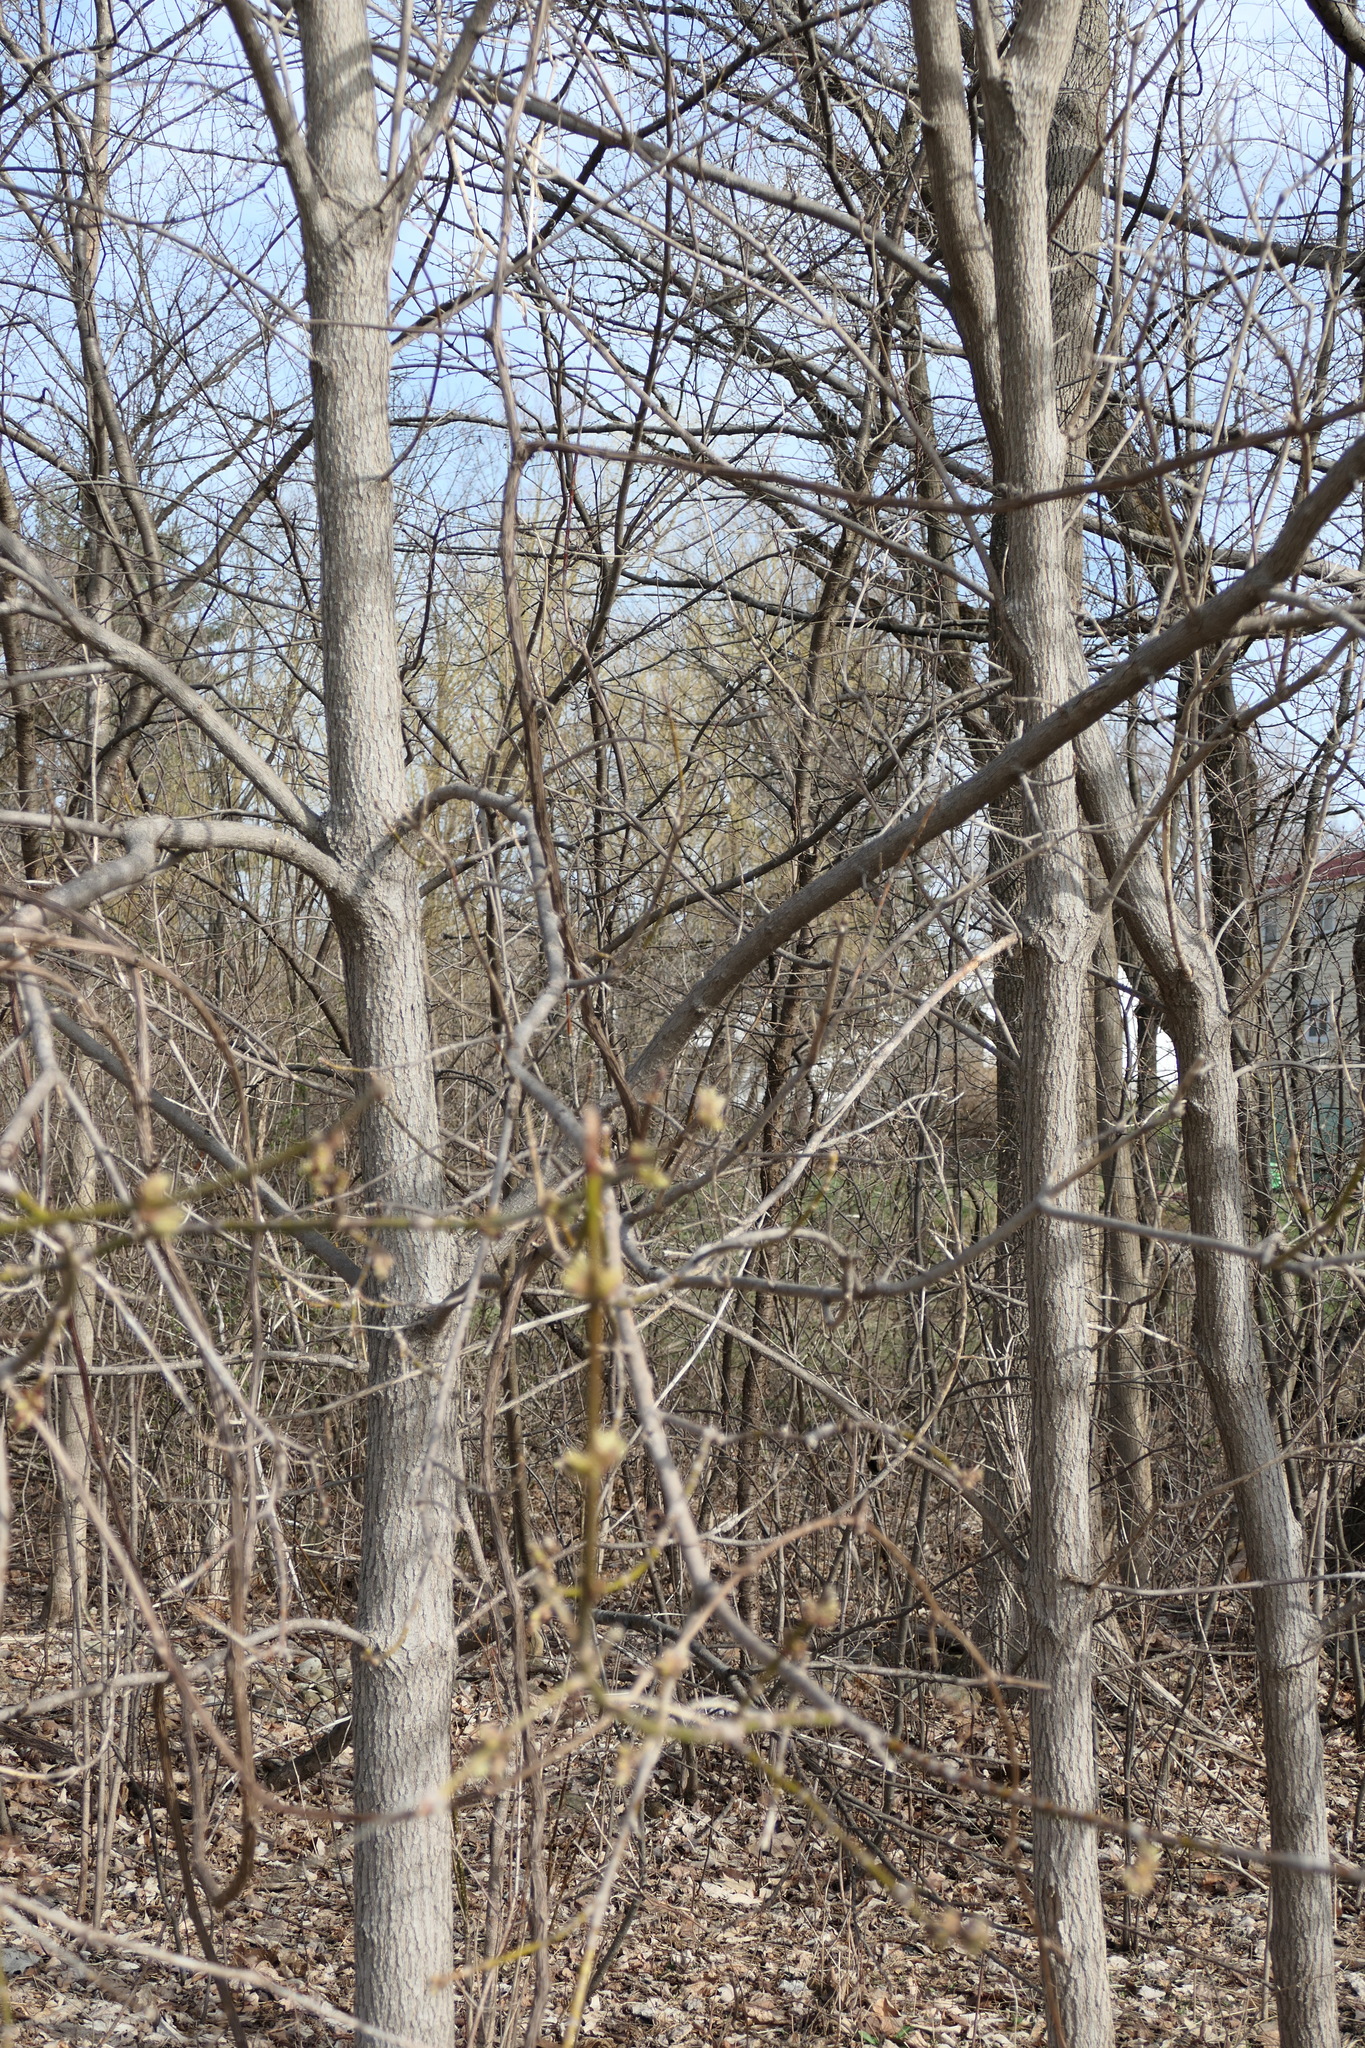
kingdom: Plantae
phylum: Tracheophyta
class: Magnoliopsida
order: Sapindales
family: Sapindaceae
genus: Acer
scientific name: Acer negundo
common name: Ashleaf maple
